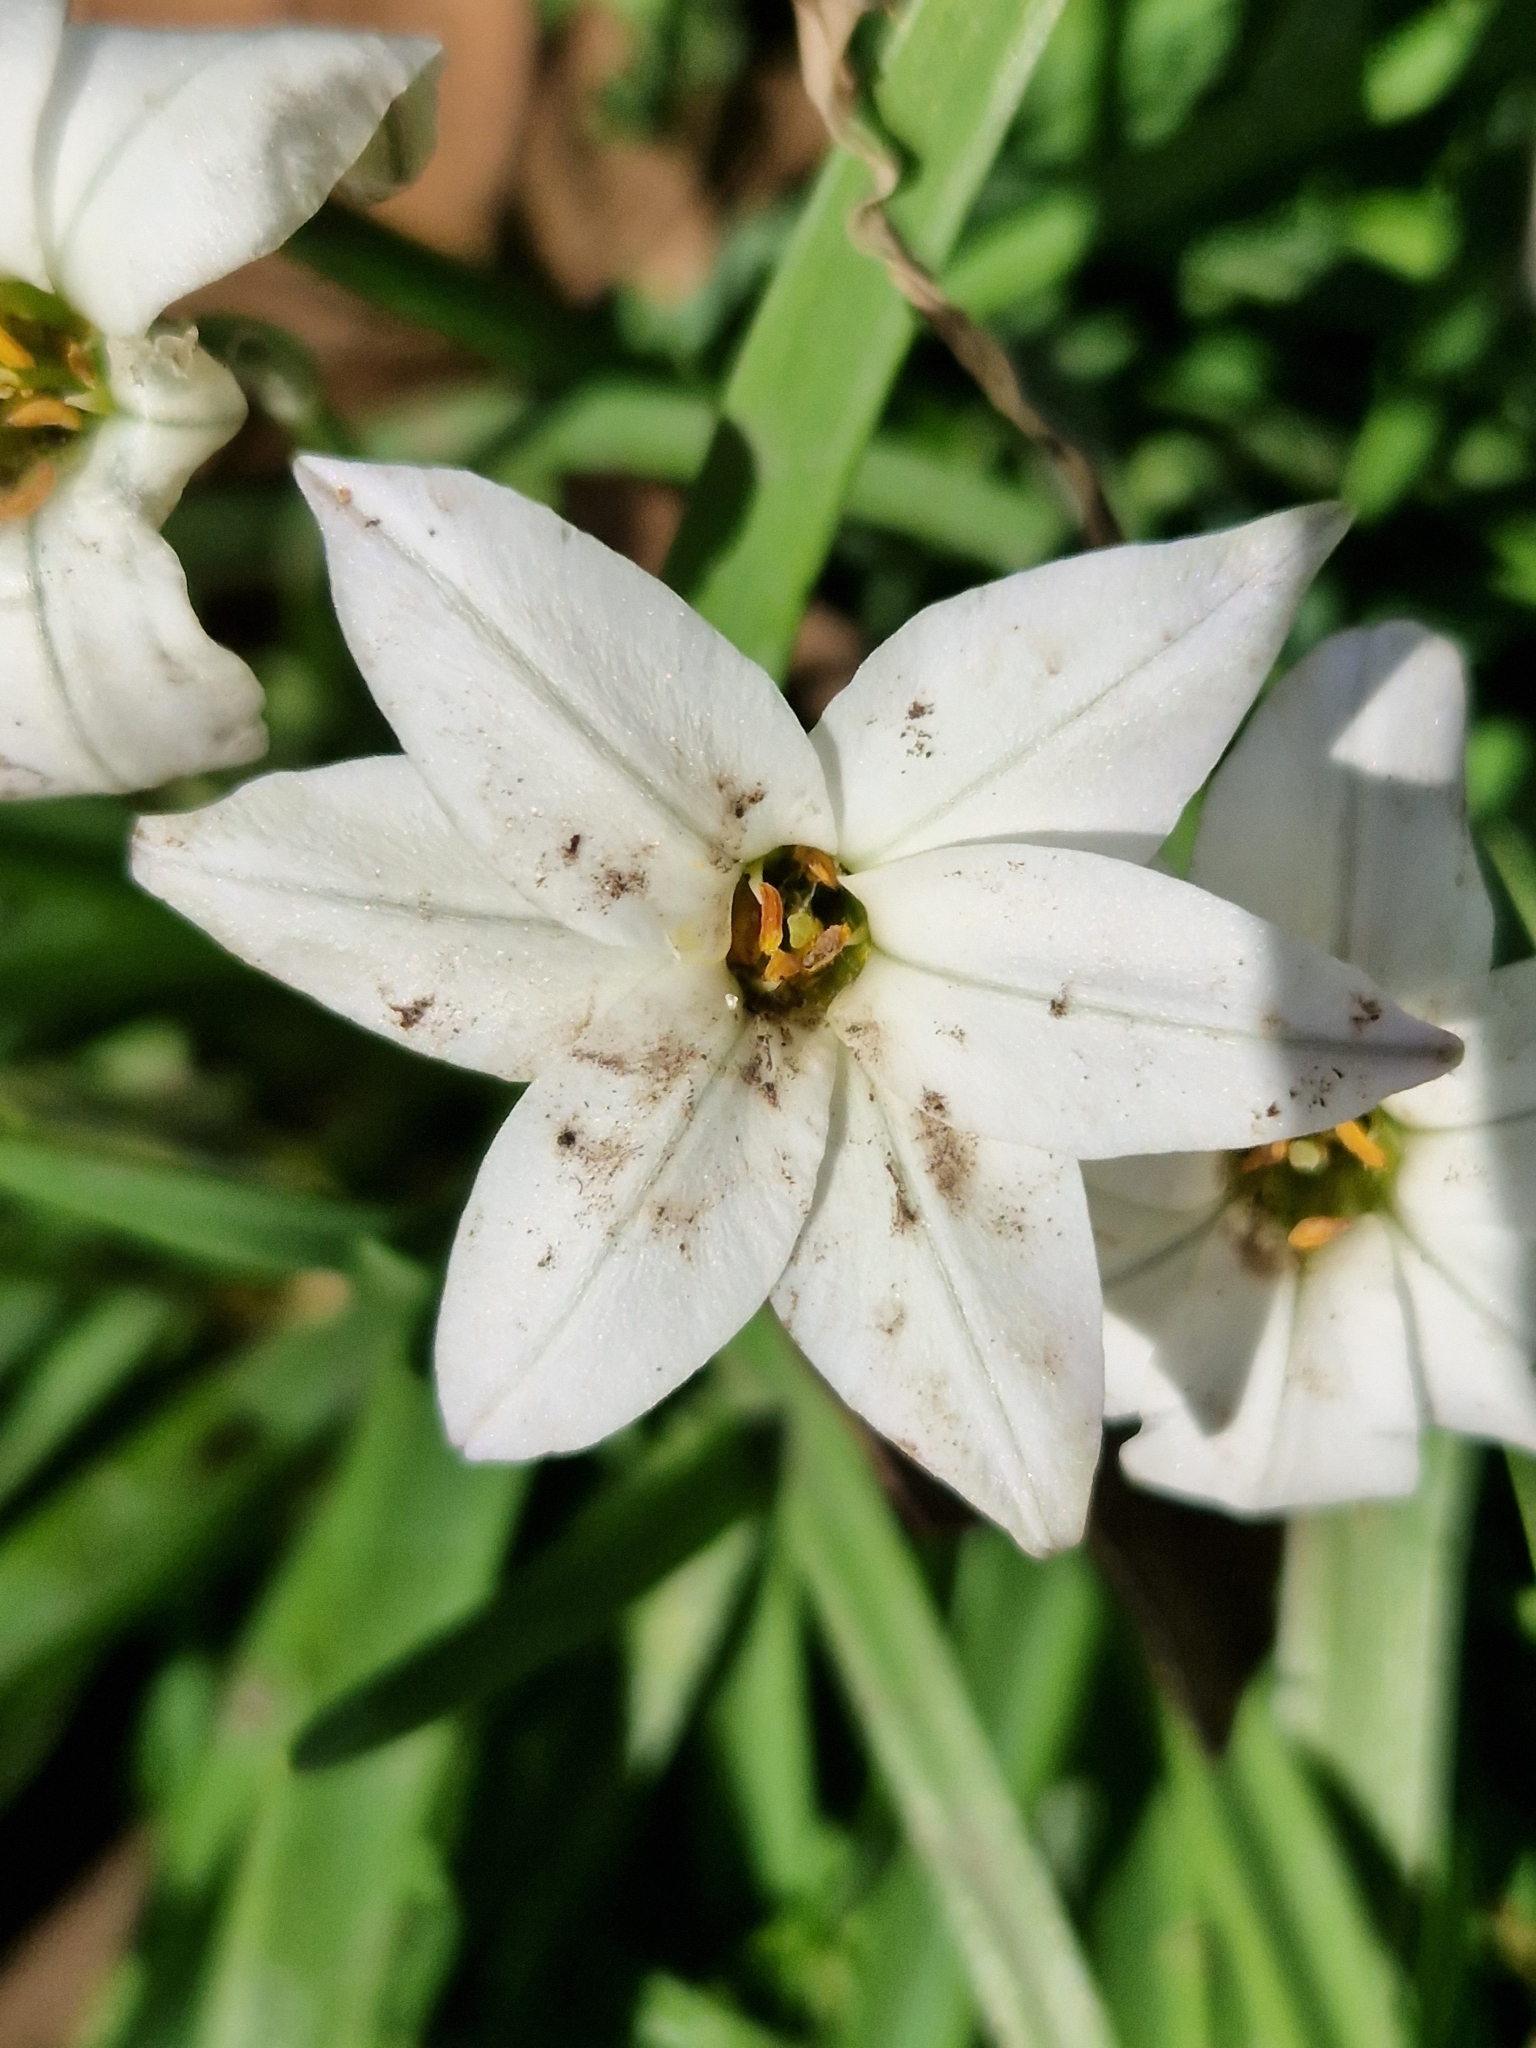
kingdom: Plantae
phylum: Tracheophyta
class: Liliopsida
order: Asparagales
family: Amaryllidaceae
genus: Ipheion
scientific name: Ipheion uniflorum
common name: Spring starflower
